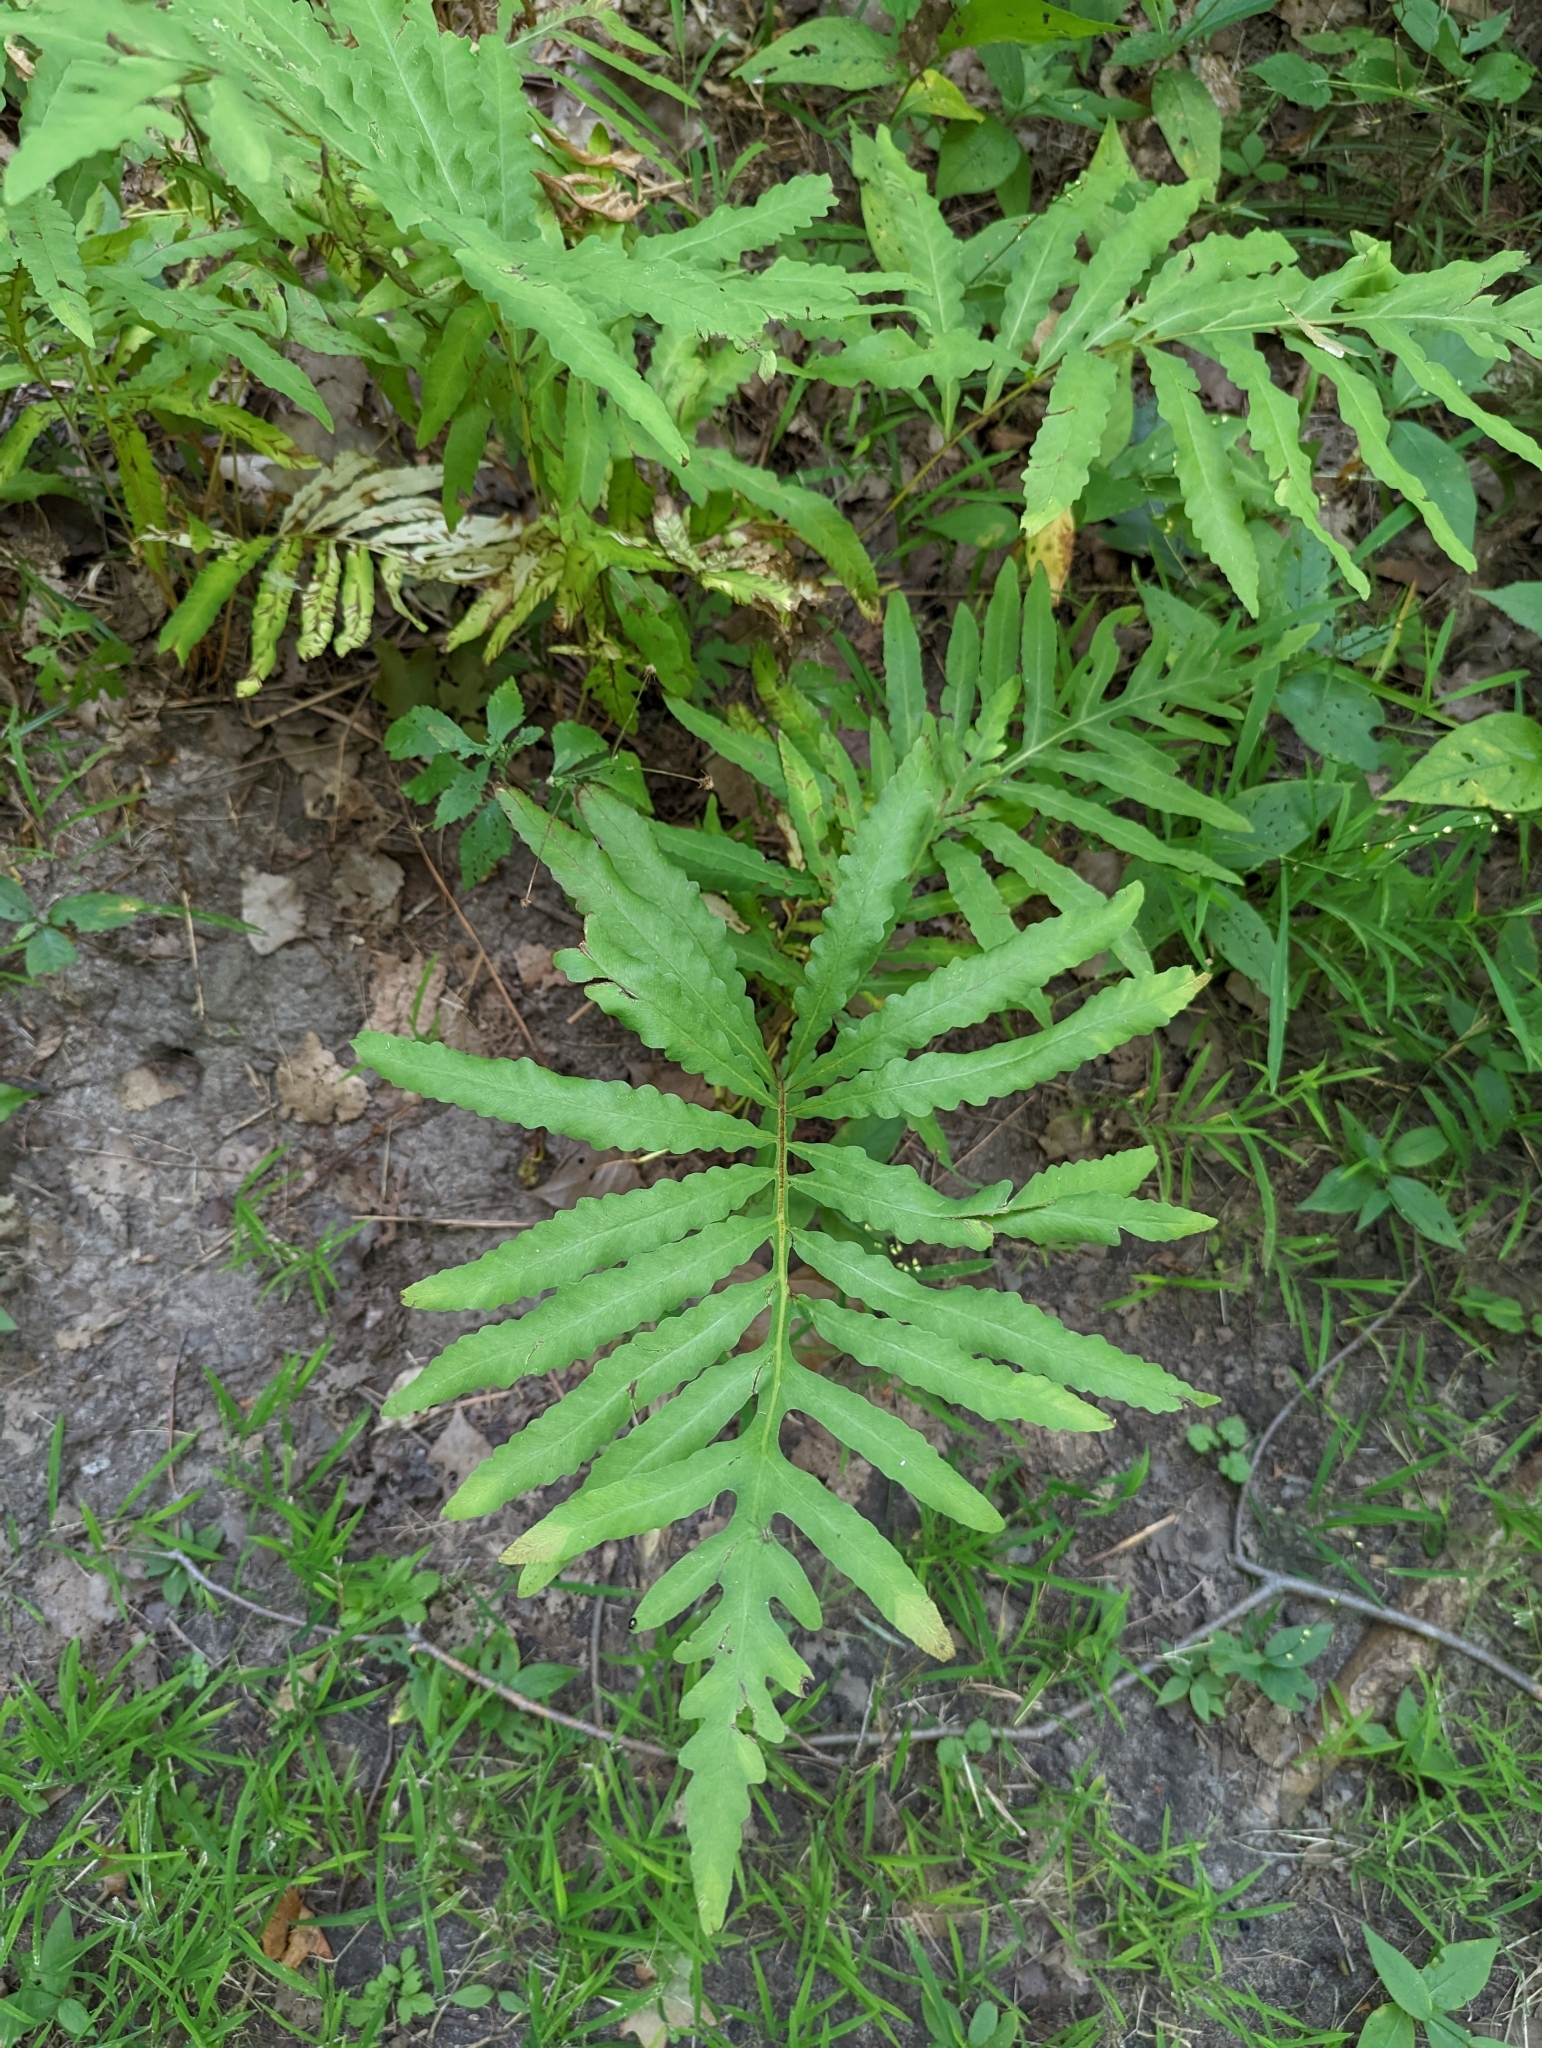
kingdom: Plantae
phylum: Tracheophyta
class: Polypodiopsida
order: Polypodiales
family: Onocleaceae
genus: Onoclea
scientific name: Onoclea sensibilis
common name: Sensitive fern
